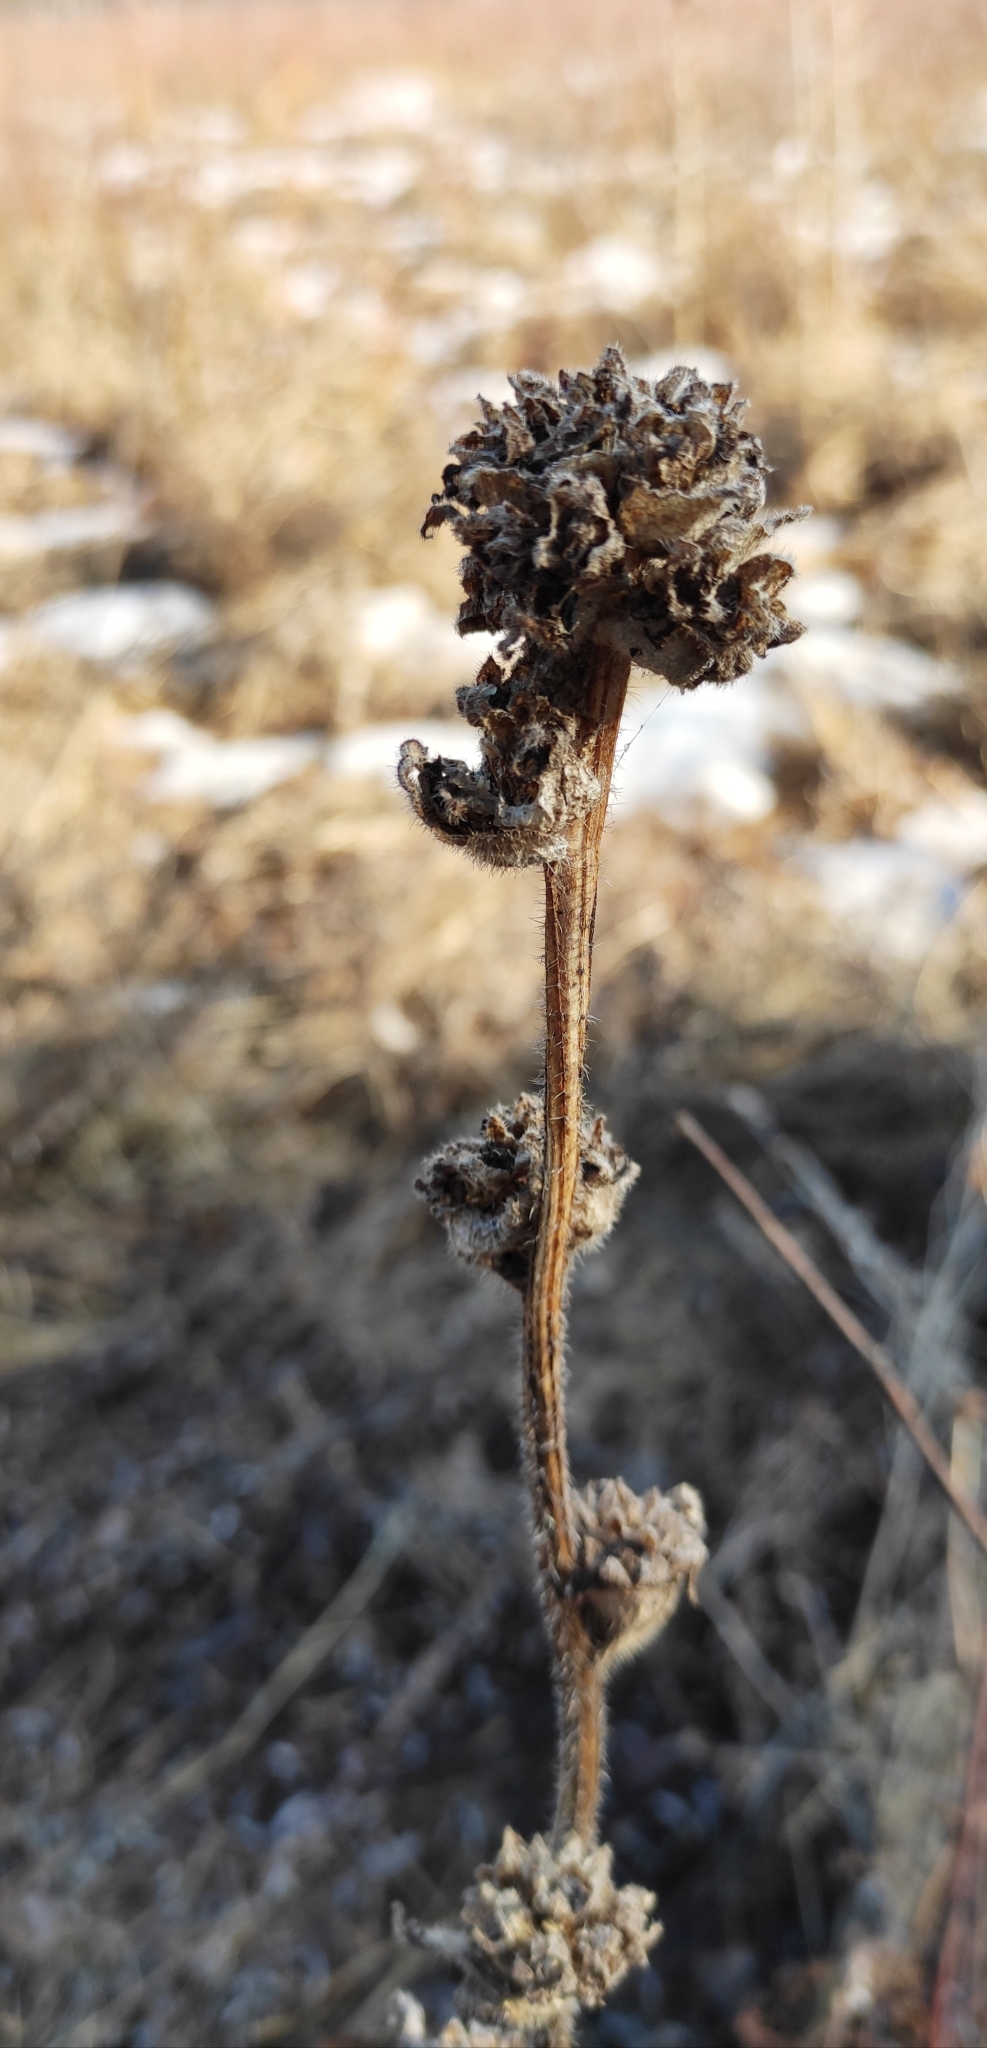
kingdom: Plantae
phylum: Tracheophyta
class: Magnoliopsida
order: Asterales
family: Campanulaceae
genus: Campanula
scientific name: Campanula cervicaria
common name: Bristly bellflower
